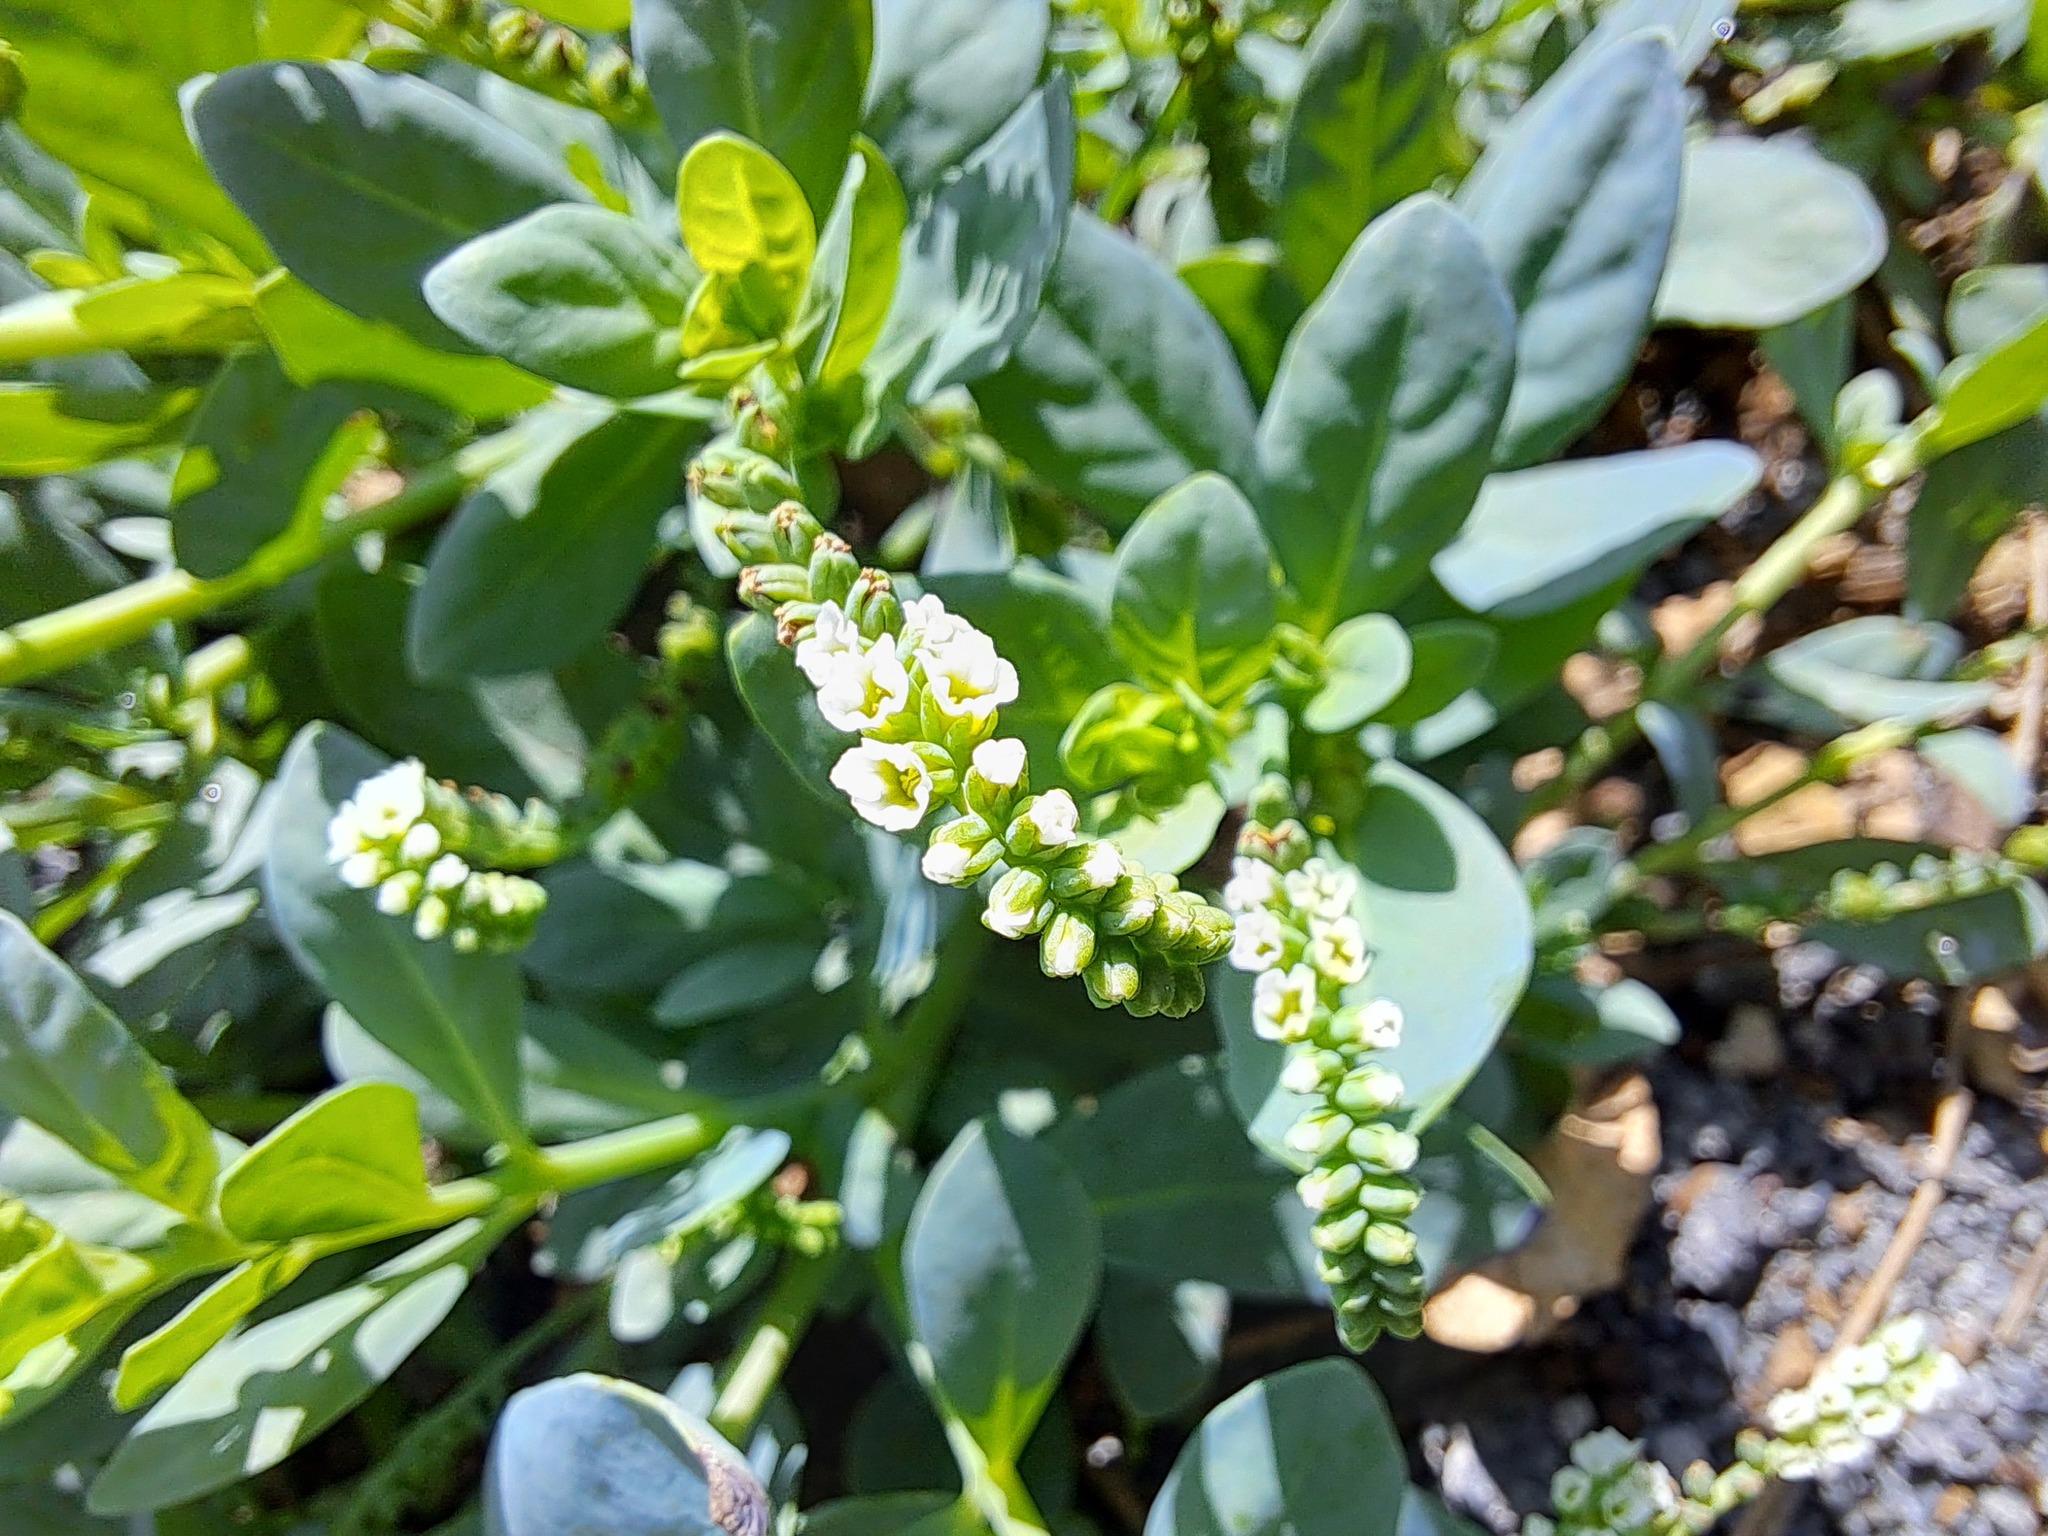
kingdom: Plantae
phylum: Tracheophyta
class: Magnoliopsida
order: Boraginales
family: Heliotropiaceae
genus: Heliotropium
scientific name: Heliotropium curassavicum
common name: Seaside heliotrope
